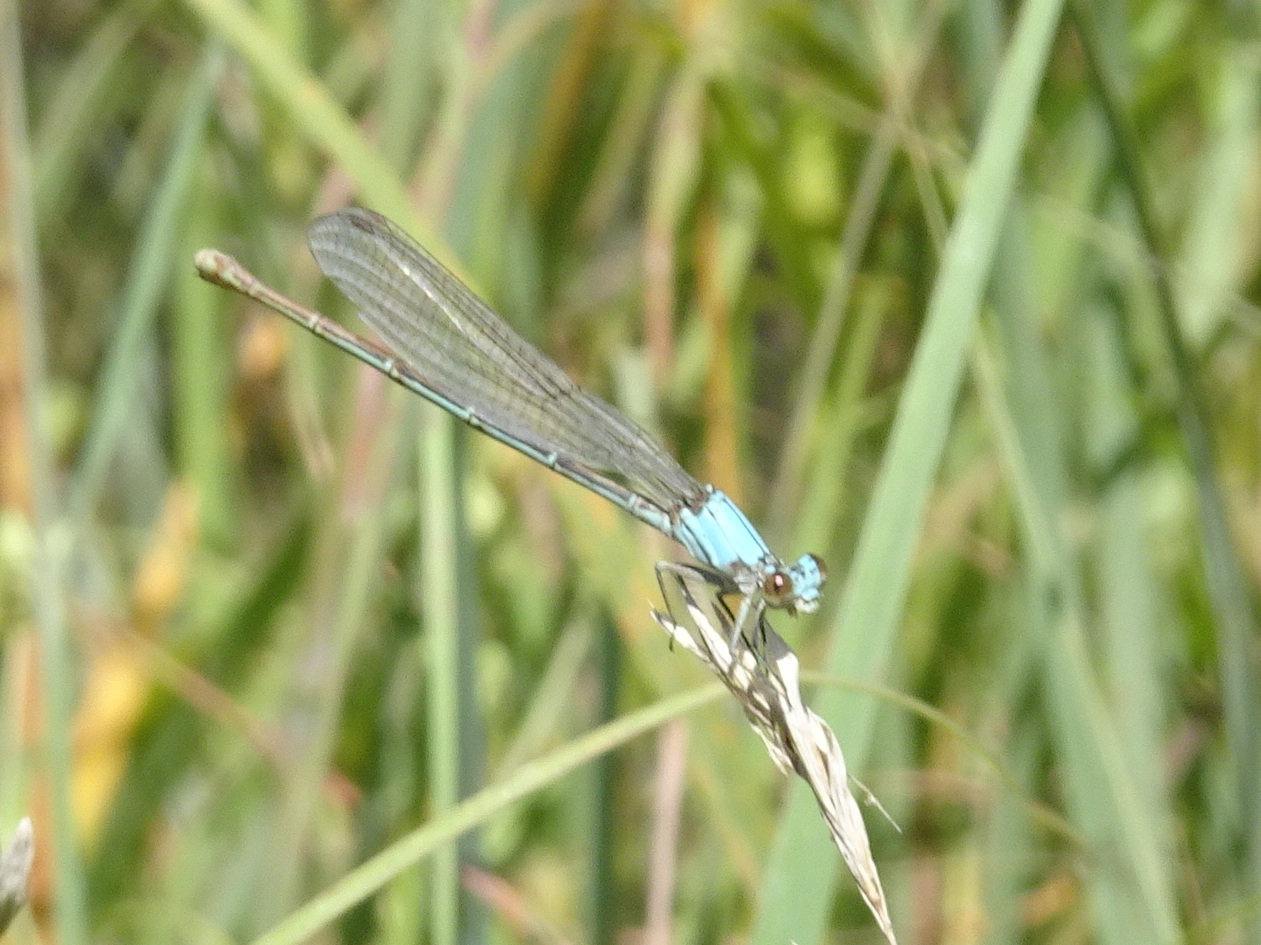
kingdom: Animalia
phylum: Arthropoda
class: Insecta
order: Odonata
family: Coenagrionidae
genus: Argia
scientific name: Argia moesta
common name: Powdered dancer
